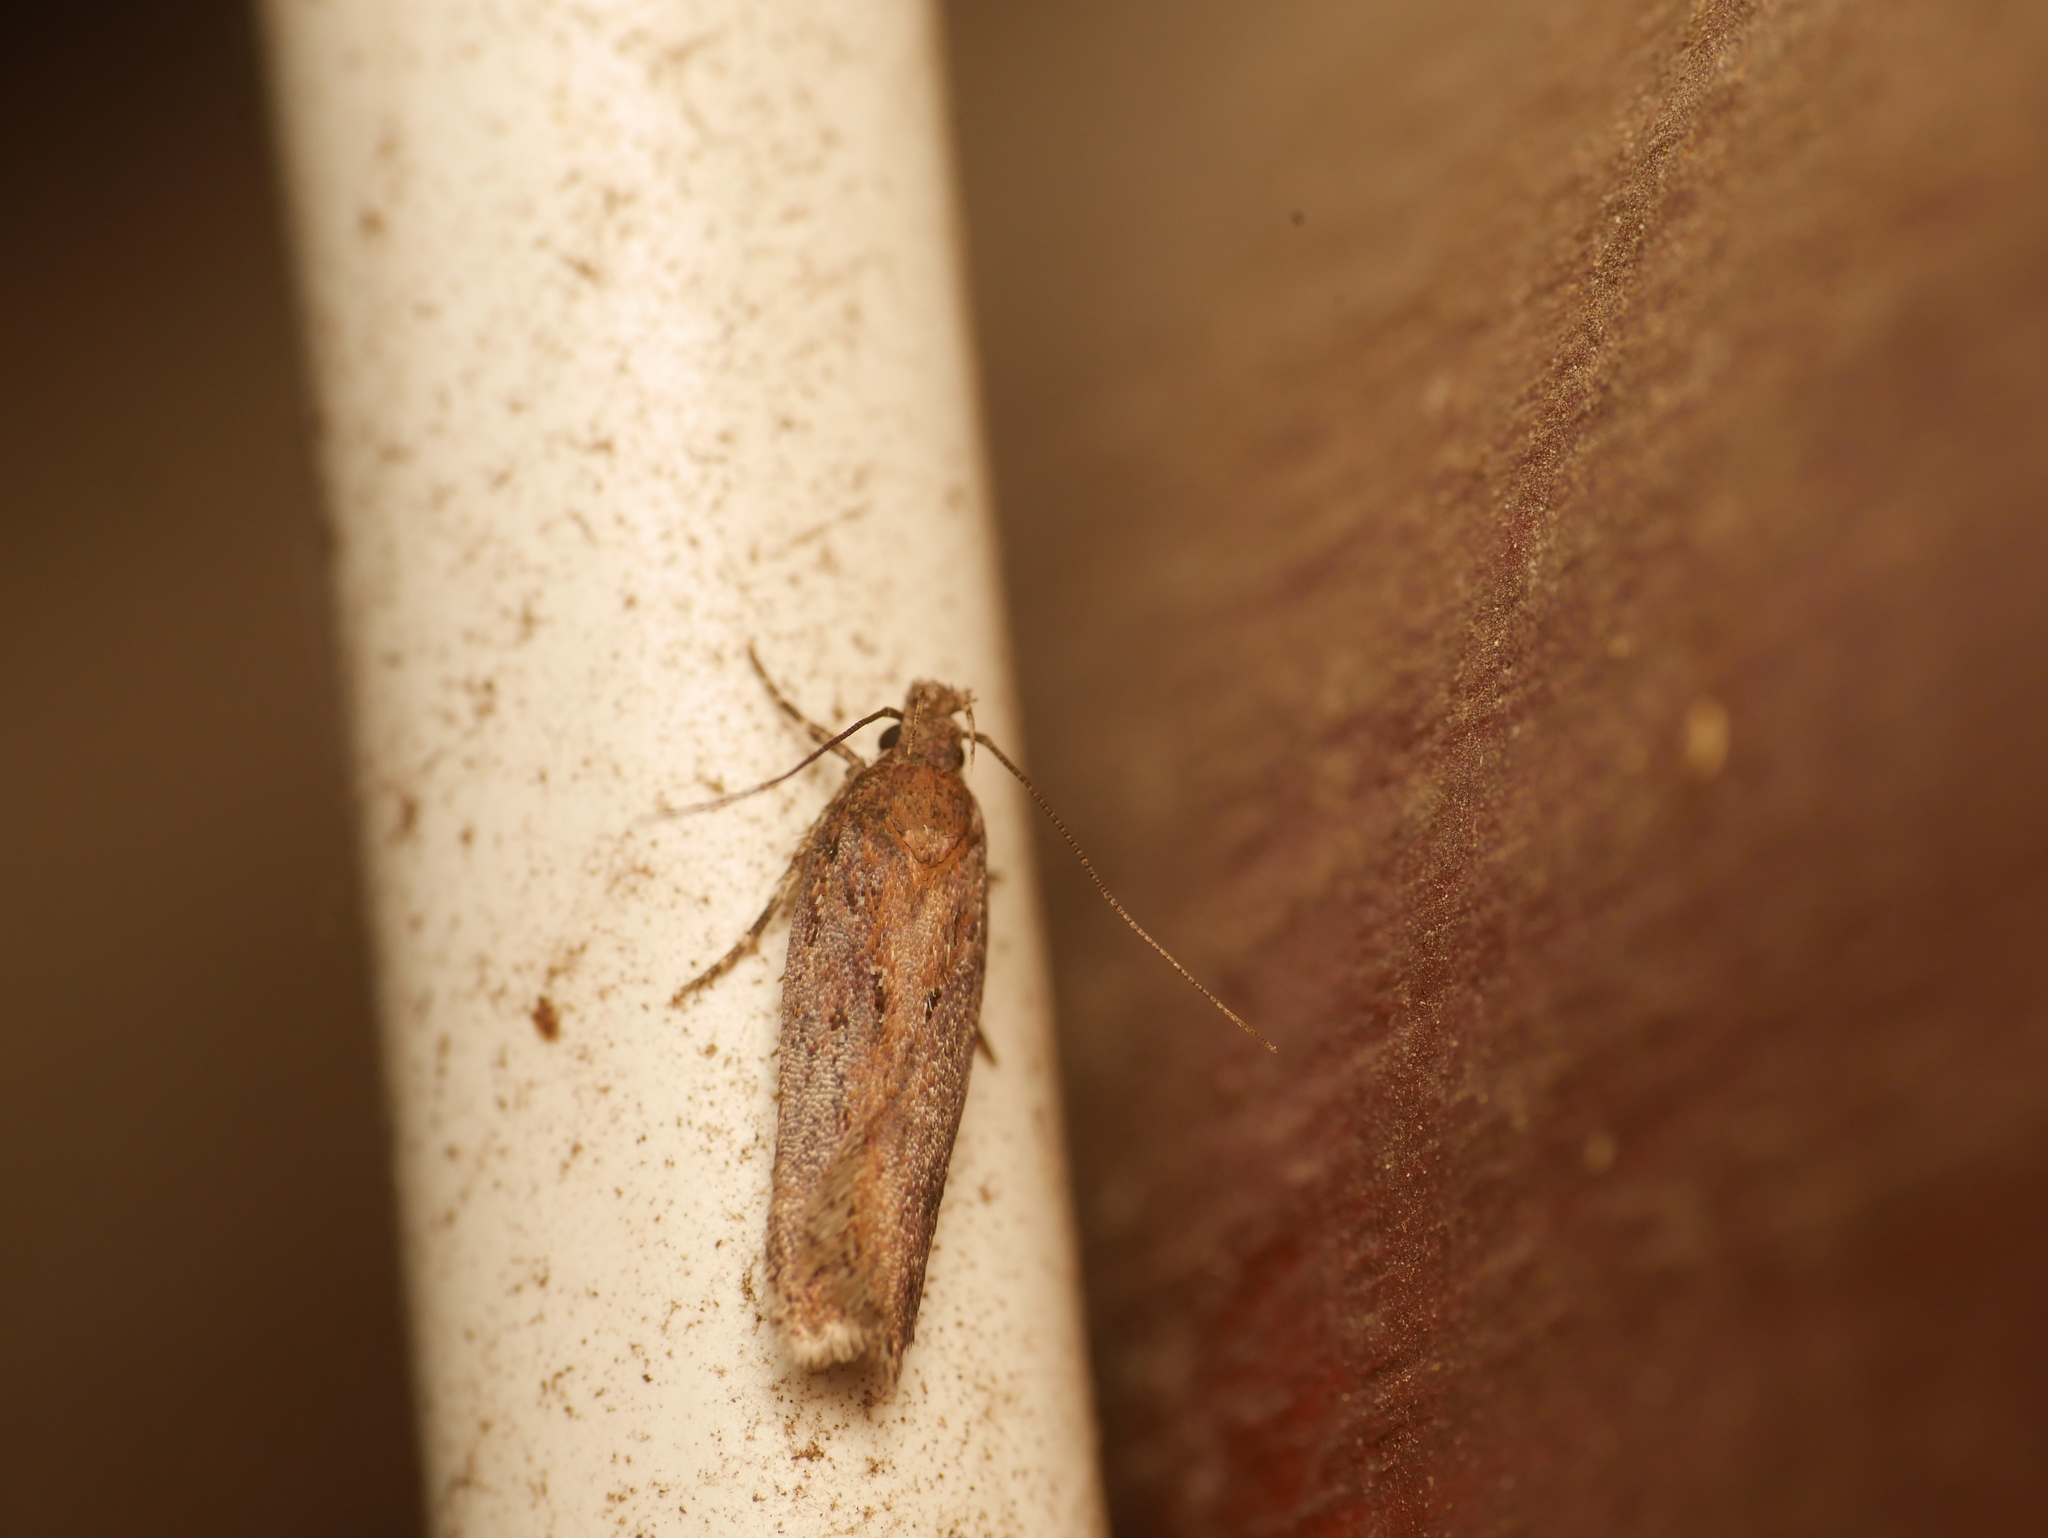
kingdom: Animalia
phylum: Arthropoda
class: Insecta
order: Lepidoptera
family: Oecophoridae
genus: Hofmannophila
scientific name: Hofmannophila pseudospretella
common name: Brown house moth
